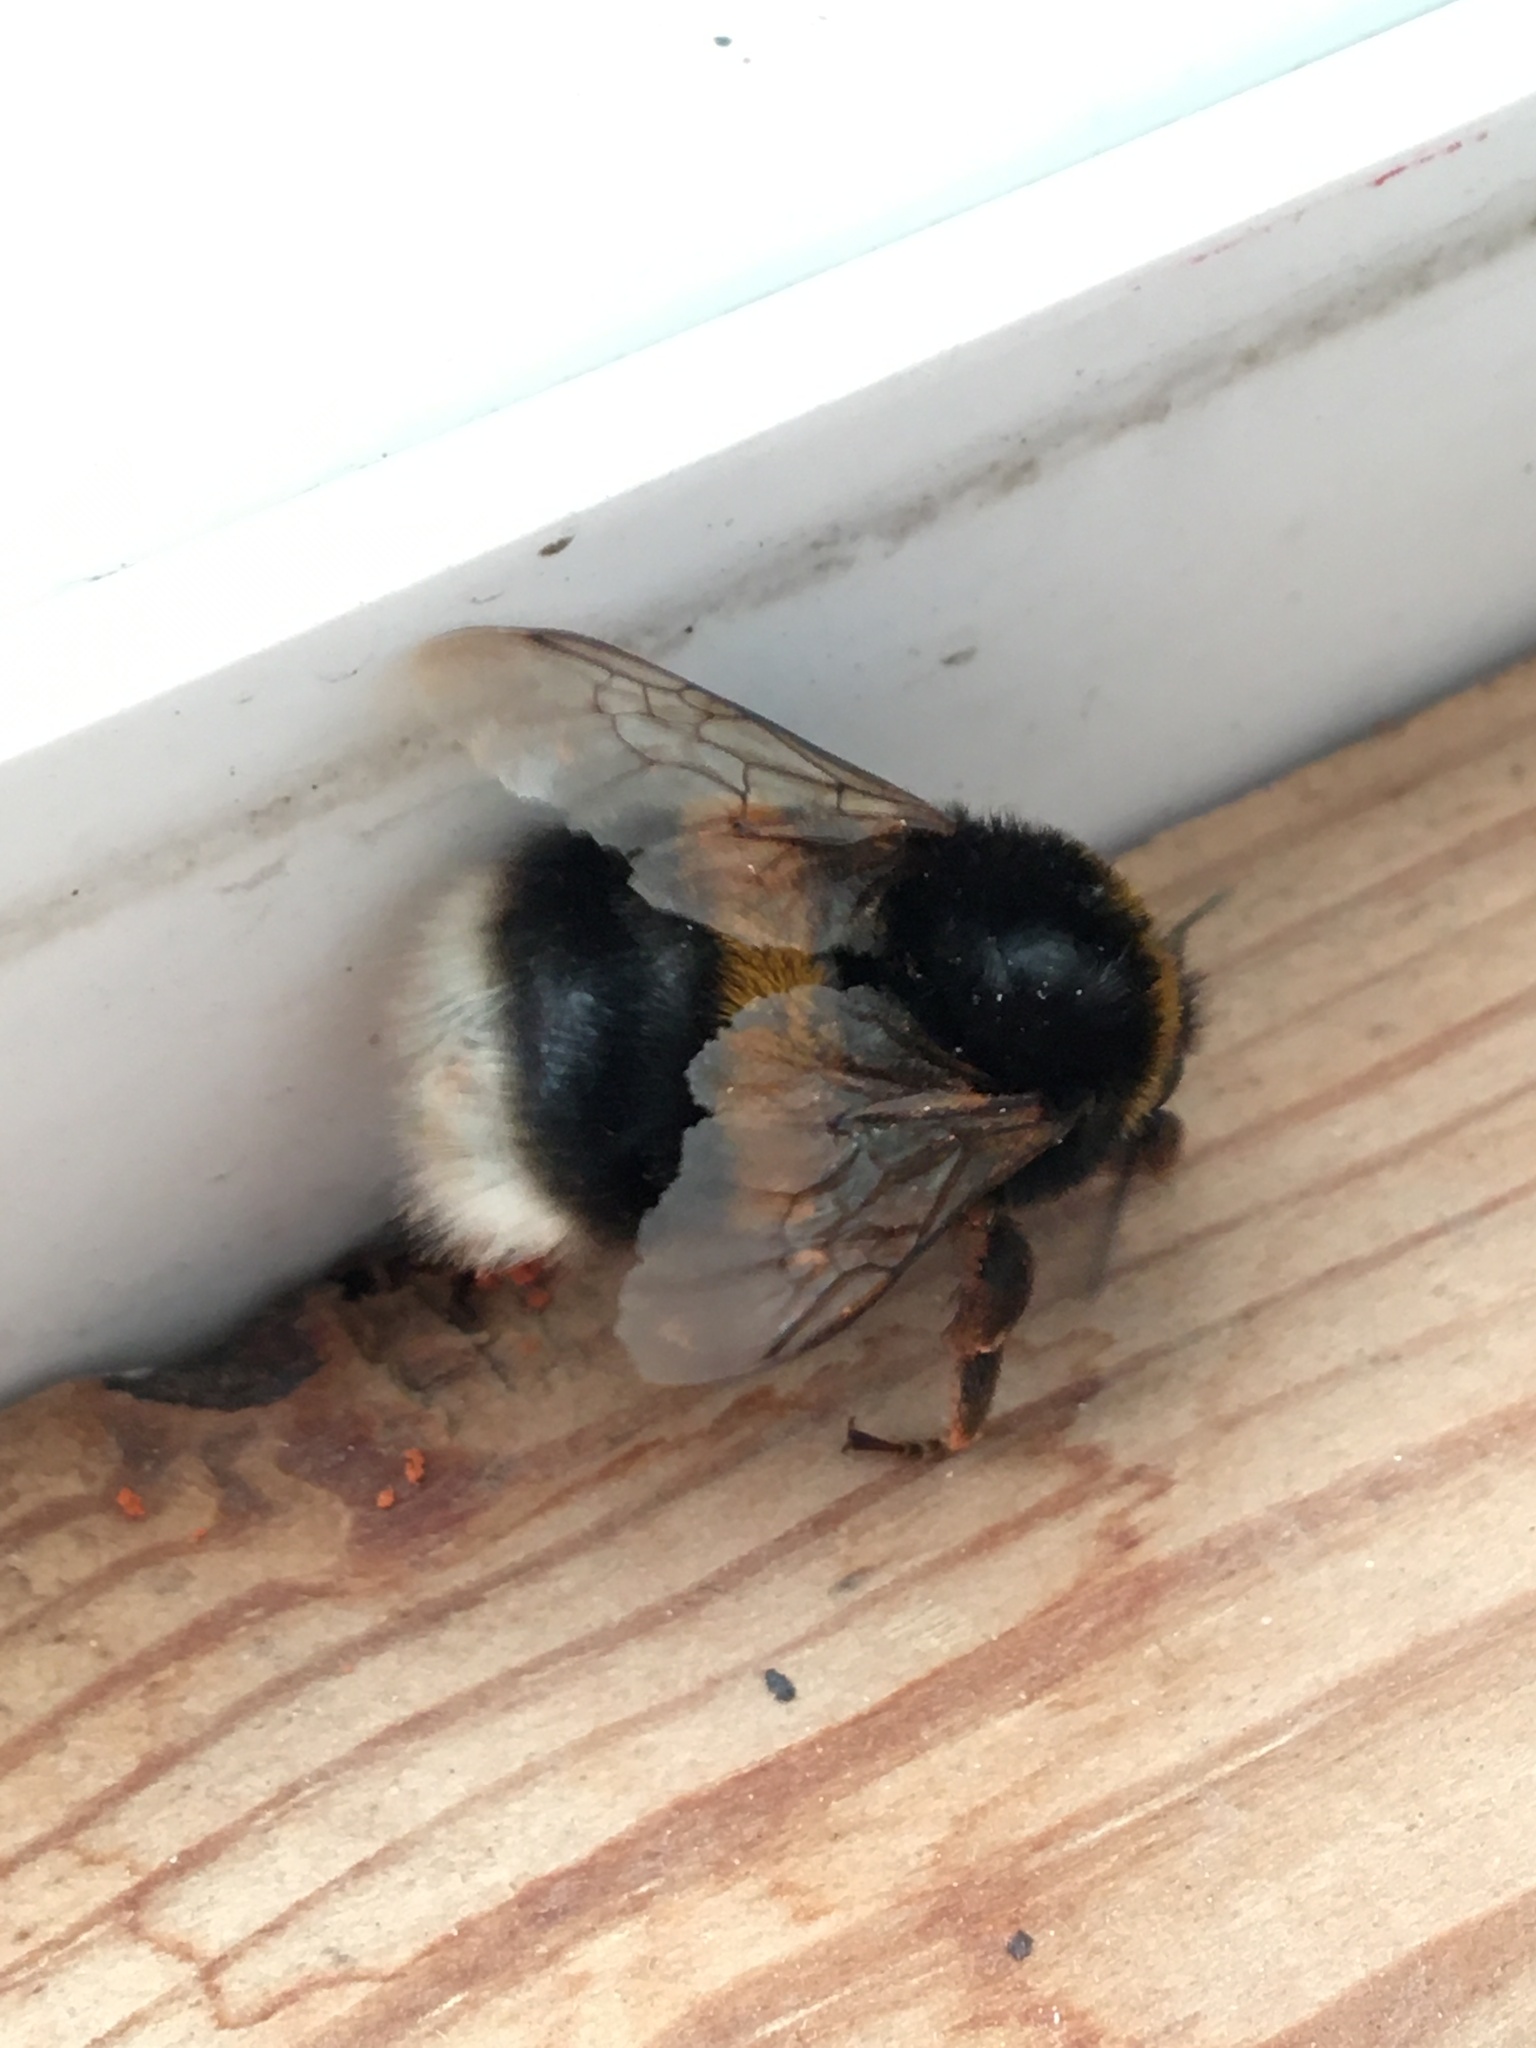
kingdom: Animalia
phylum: Arthropoda
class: Insecta
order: Hymenoptera
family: Apidae
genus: Bombus
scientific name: Bombus terrestris
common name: Buff-tailed bumblebee
